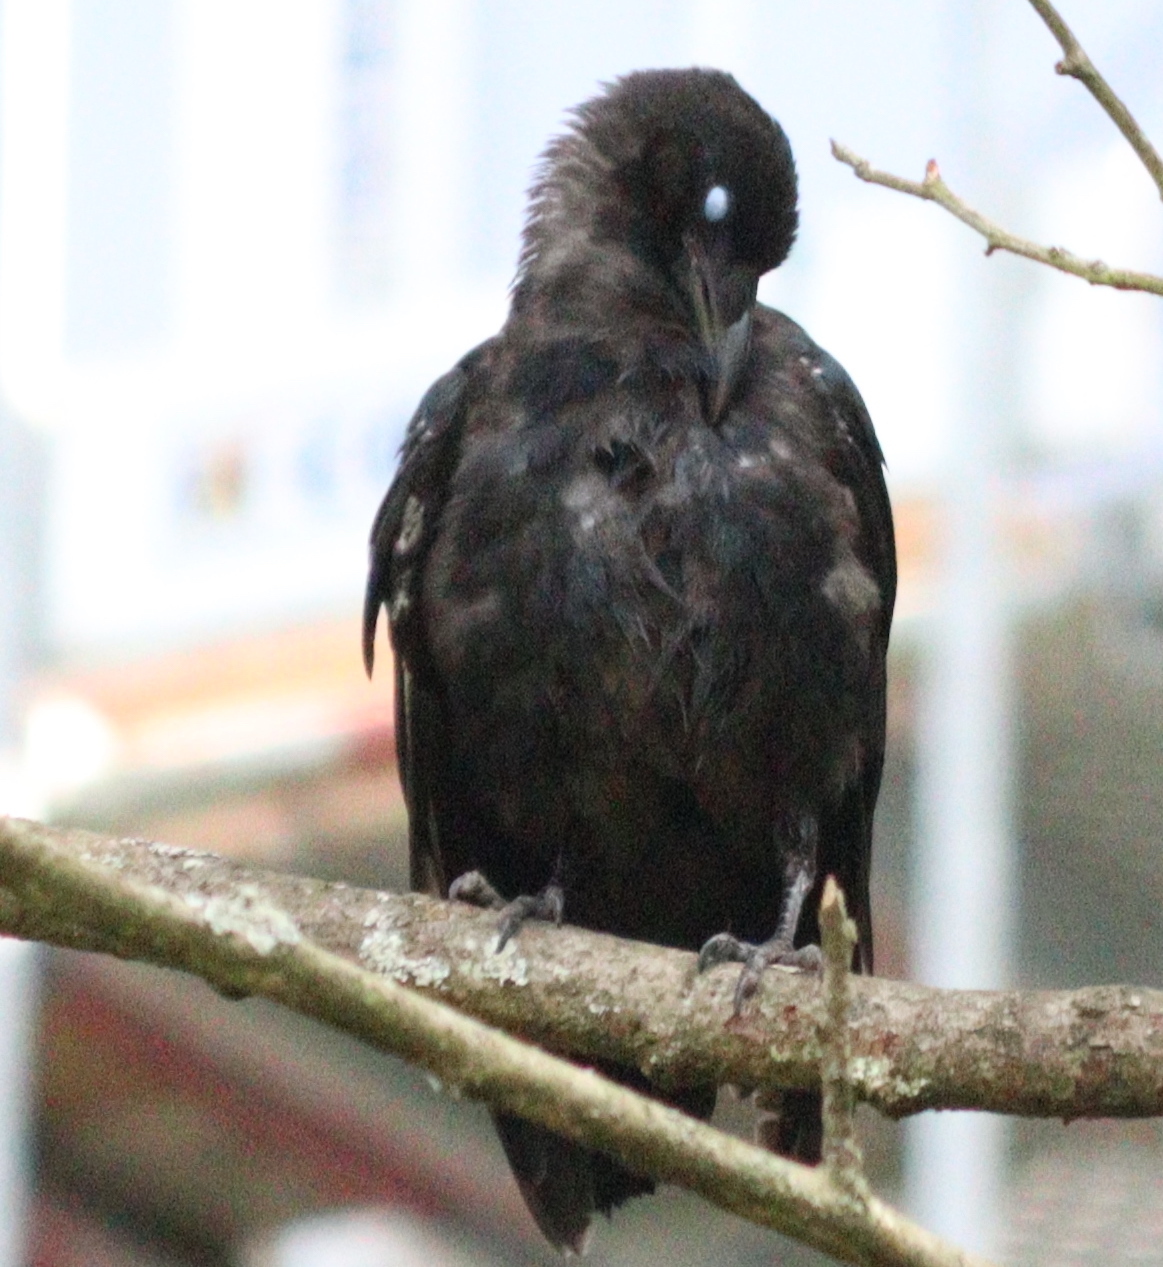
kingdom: Animalia
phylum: Chordata
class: Aves
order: Passeriformes
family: Corvidae
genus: Corvus
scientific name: Corvus corone
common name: Carrion crow
